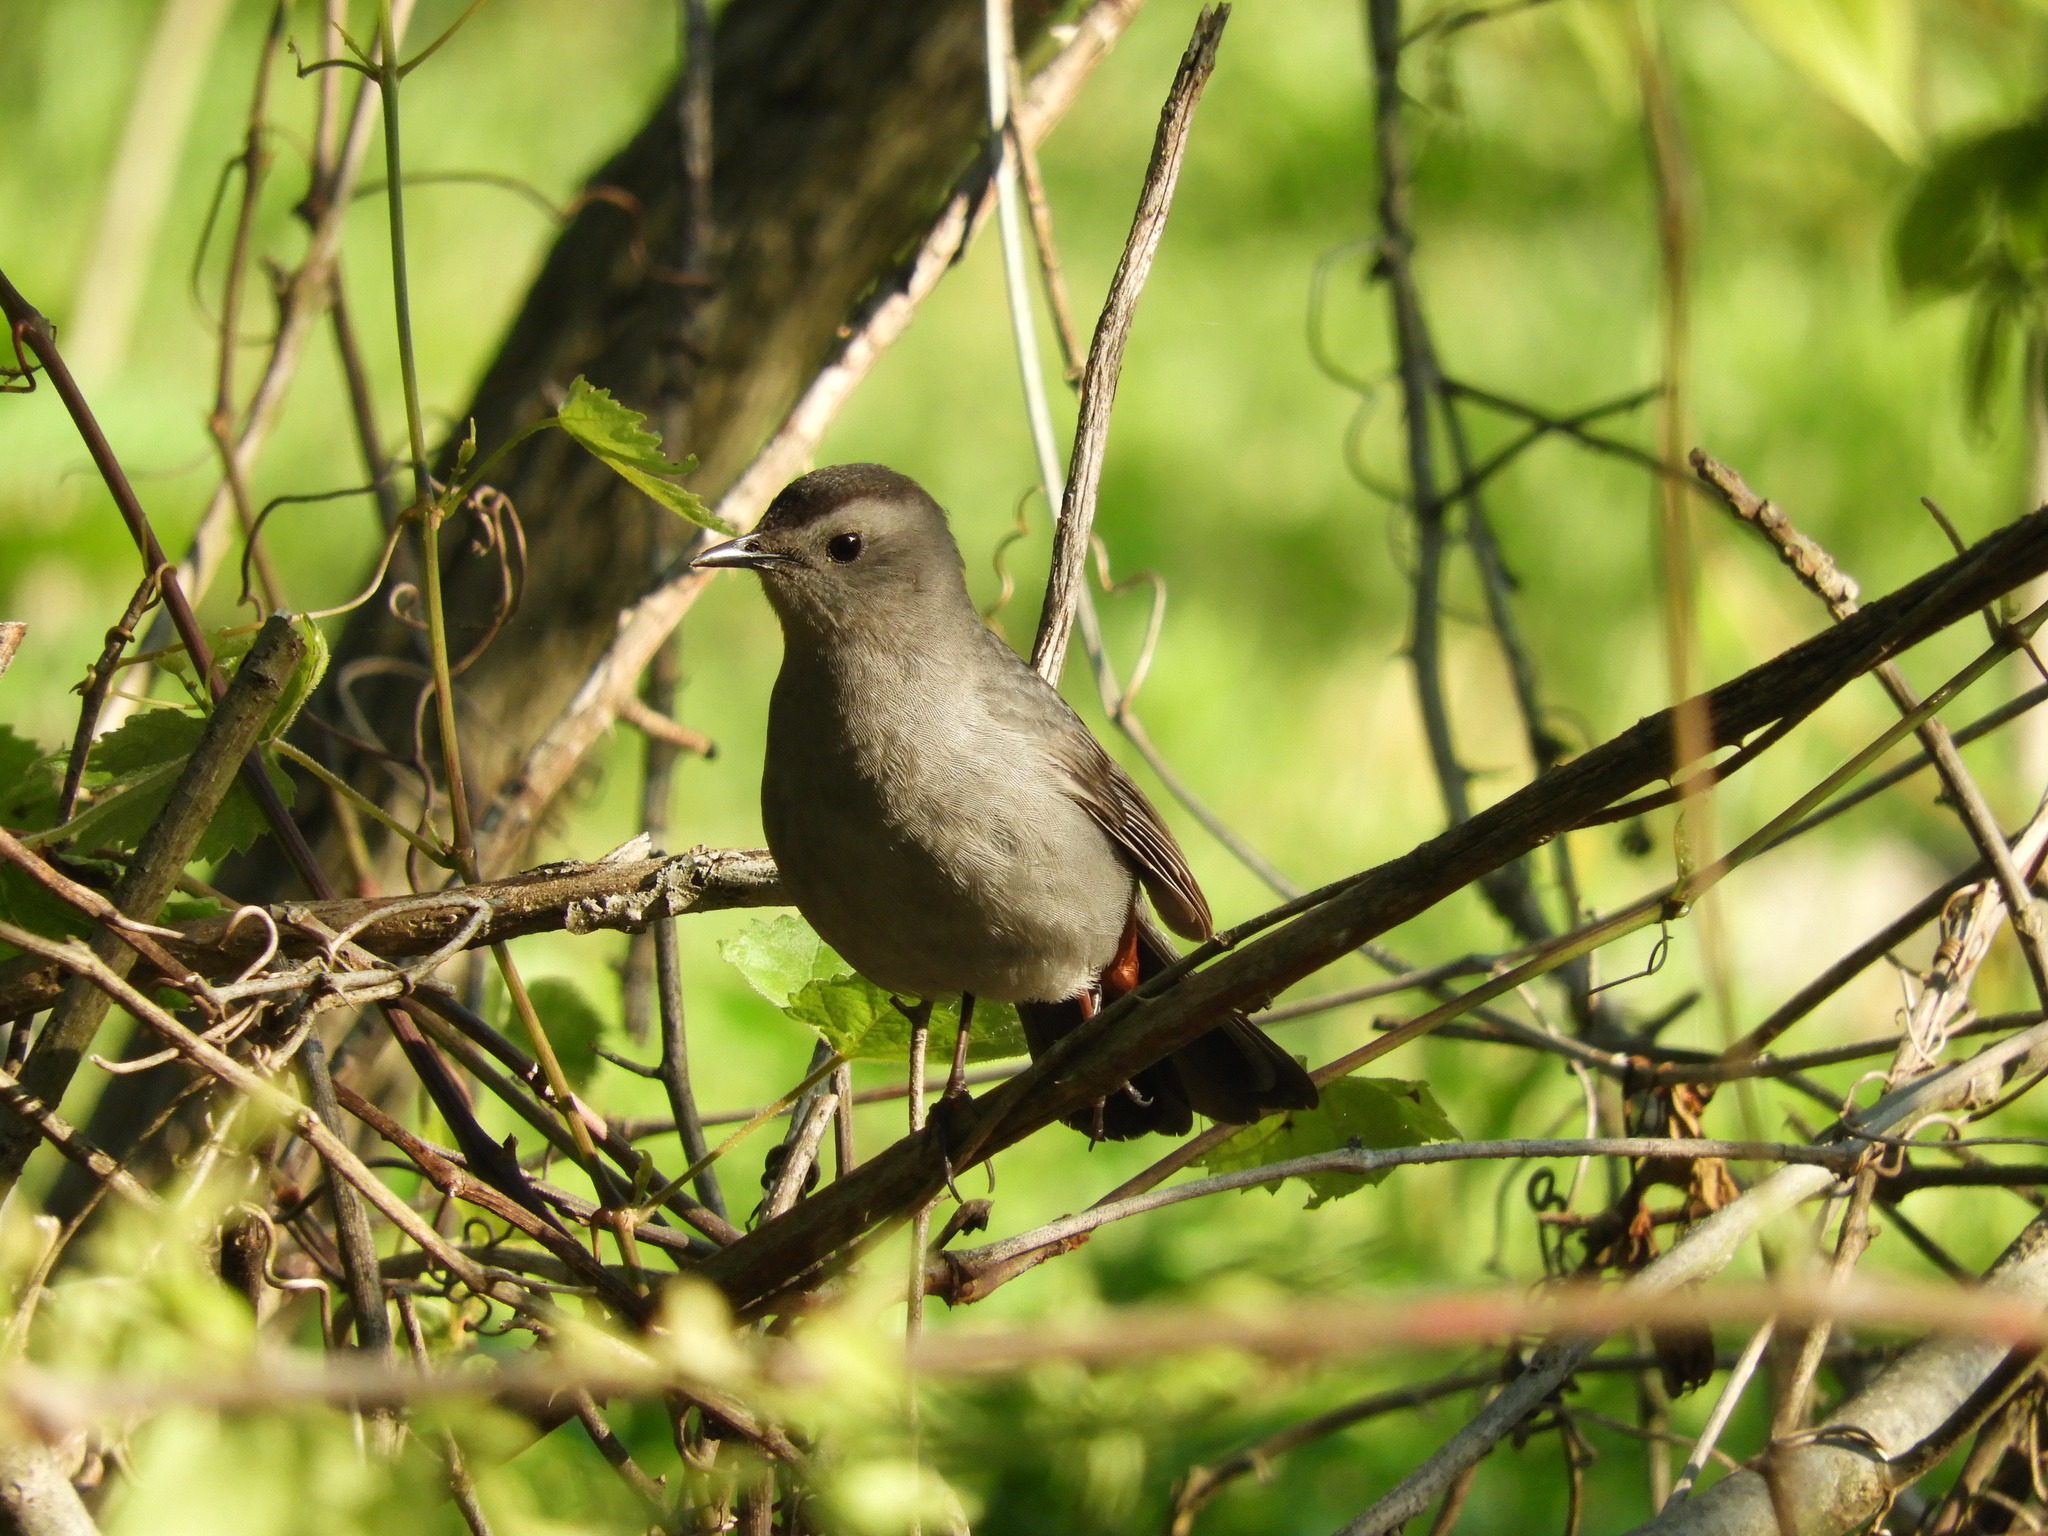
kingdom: Animalia
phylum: Chordata
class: Aves
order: Passeriformes
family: Mimidae
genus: Dumetella
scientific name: Dumetella carolinensis
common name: Gray catbird
